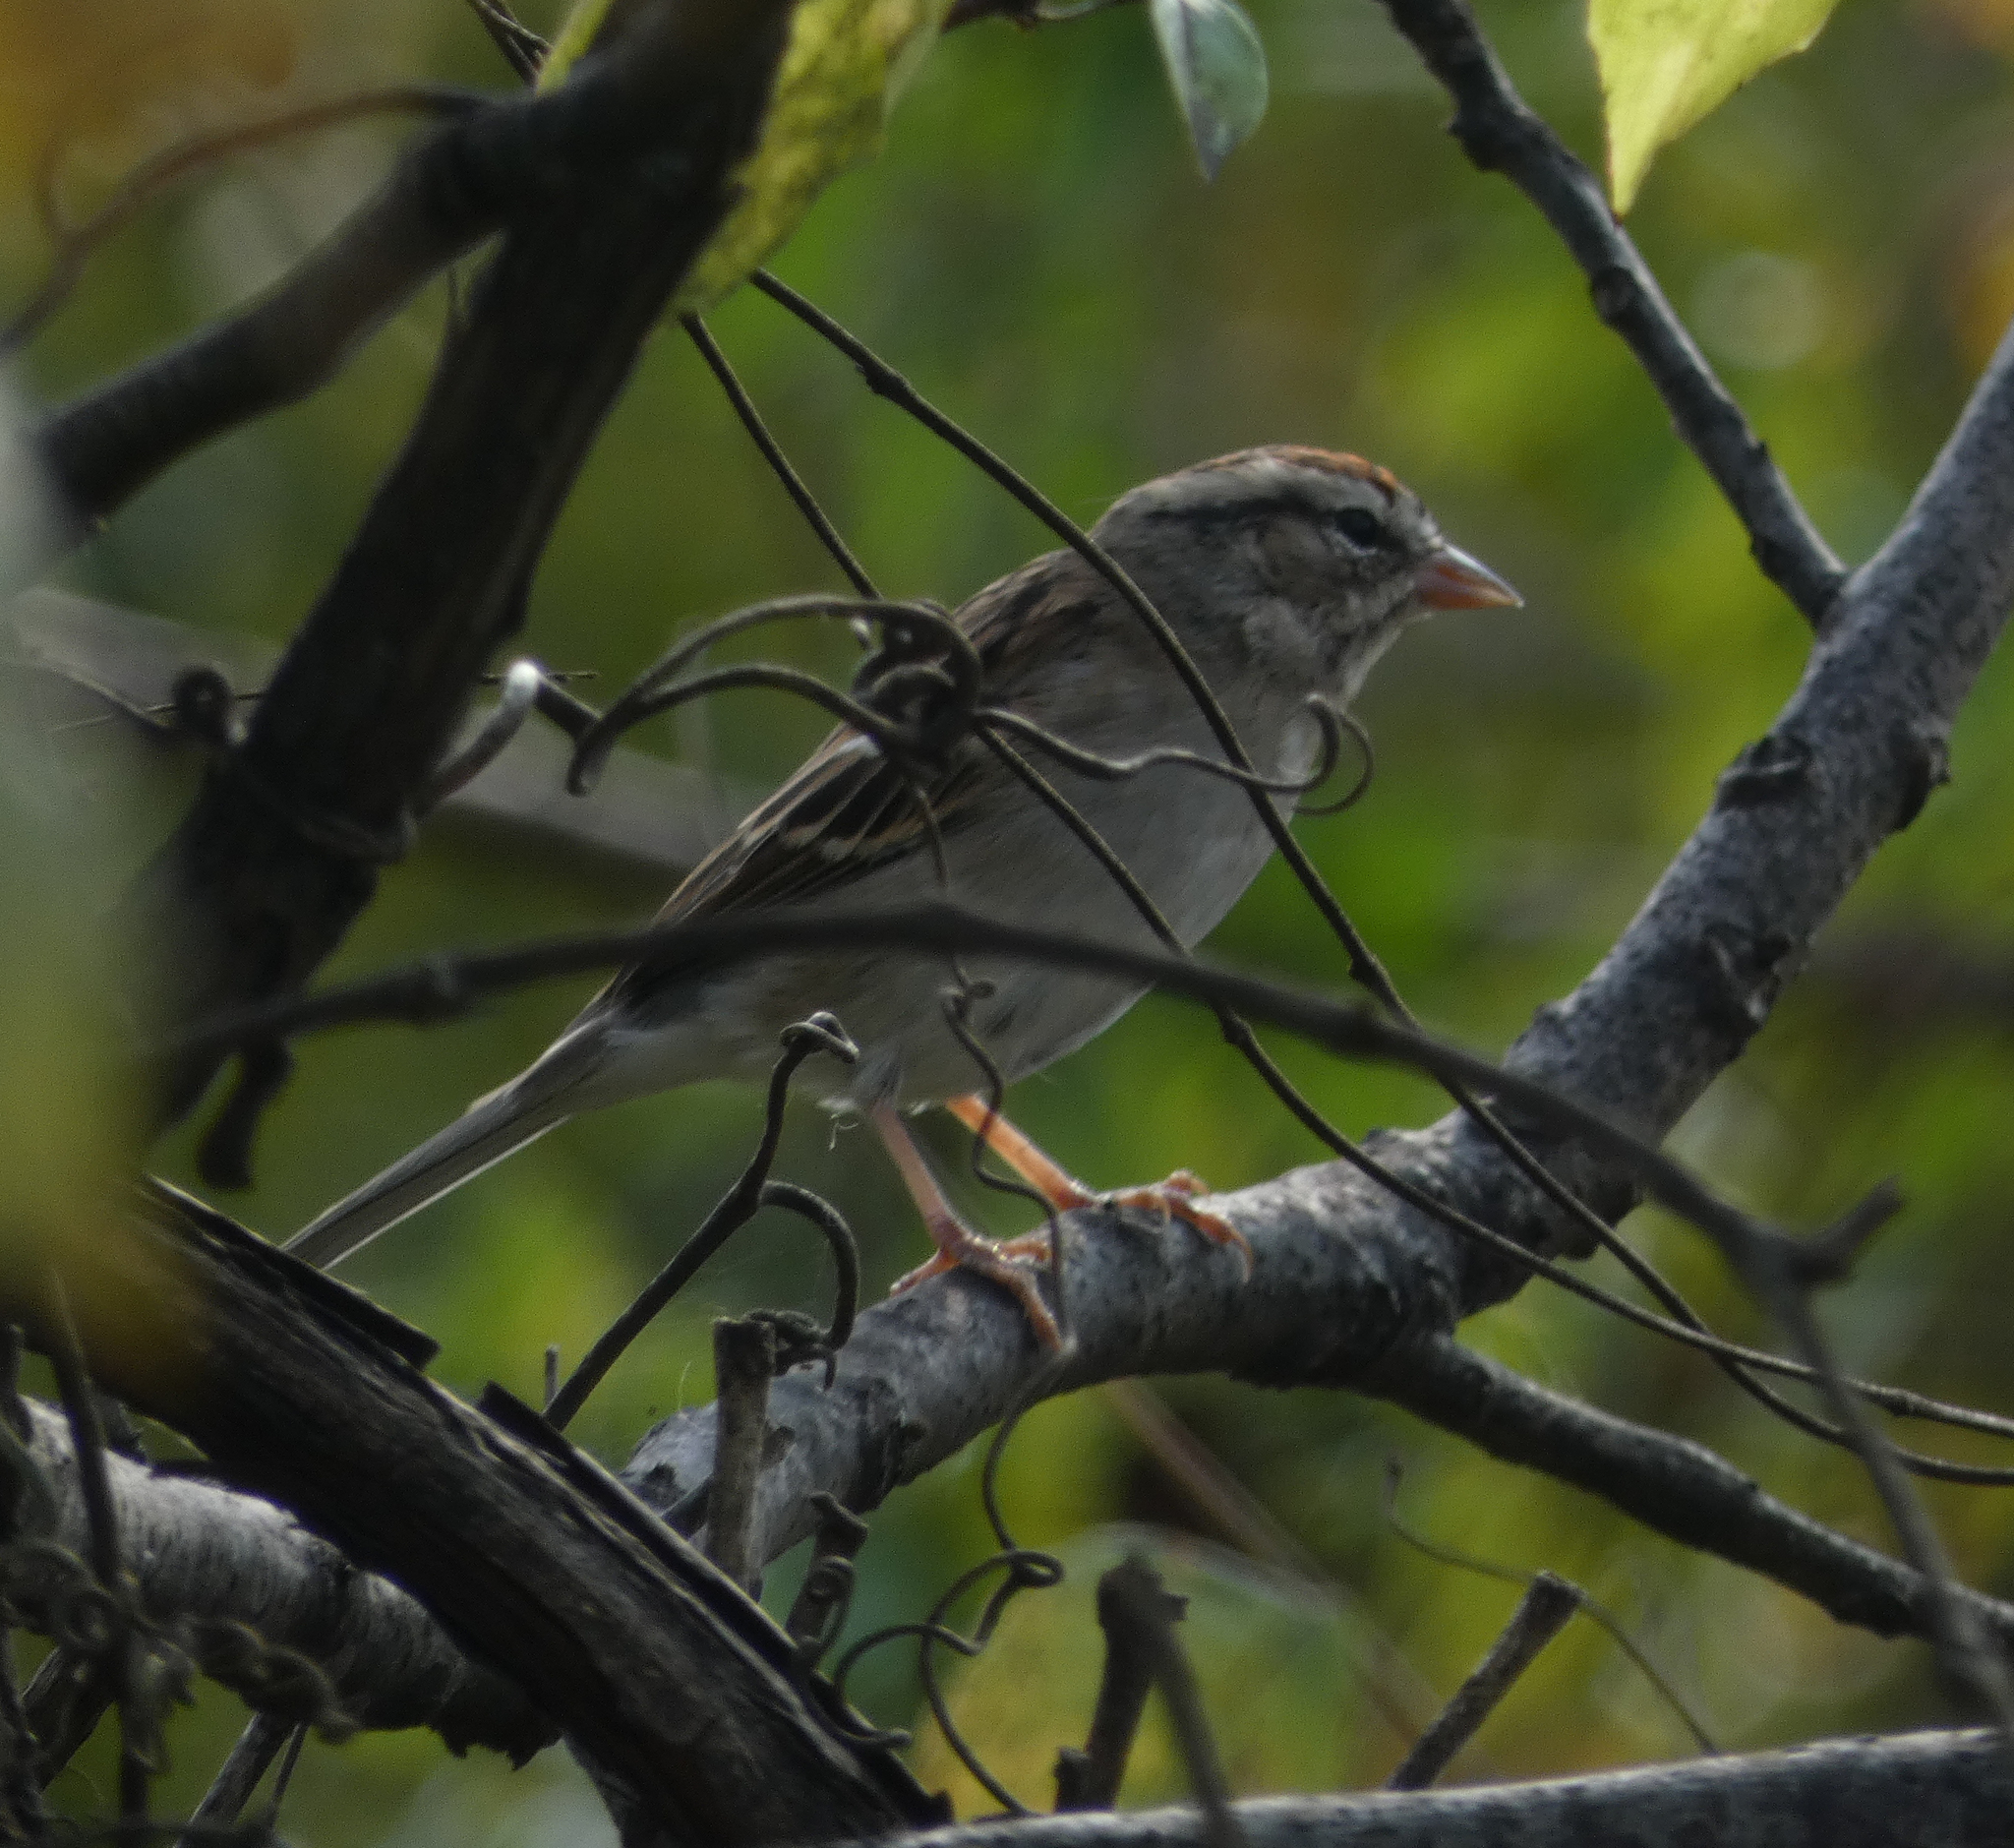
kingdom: Animalia
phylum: Chordata
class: Aves
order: Passeriformes
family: Passerellidae
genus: Spizella
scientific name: Spizella passerina
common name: Chipping sparrow
